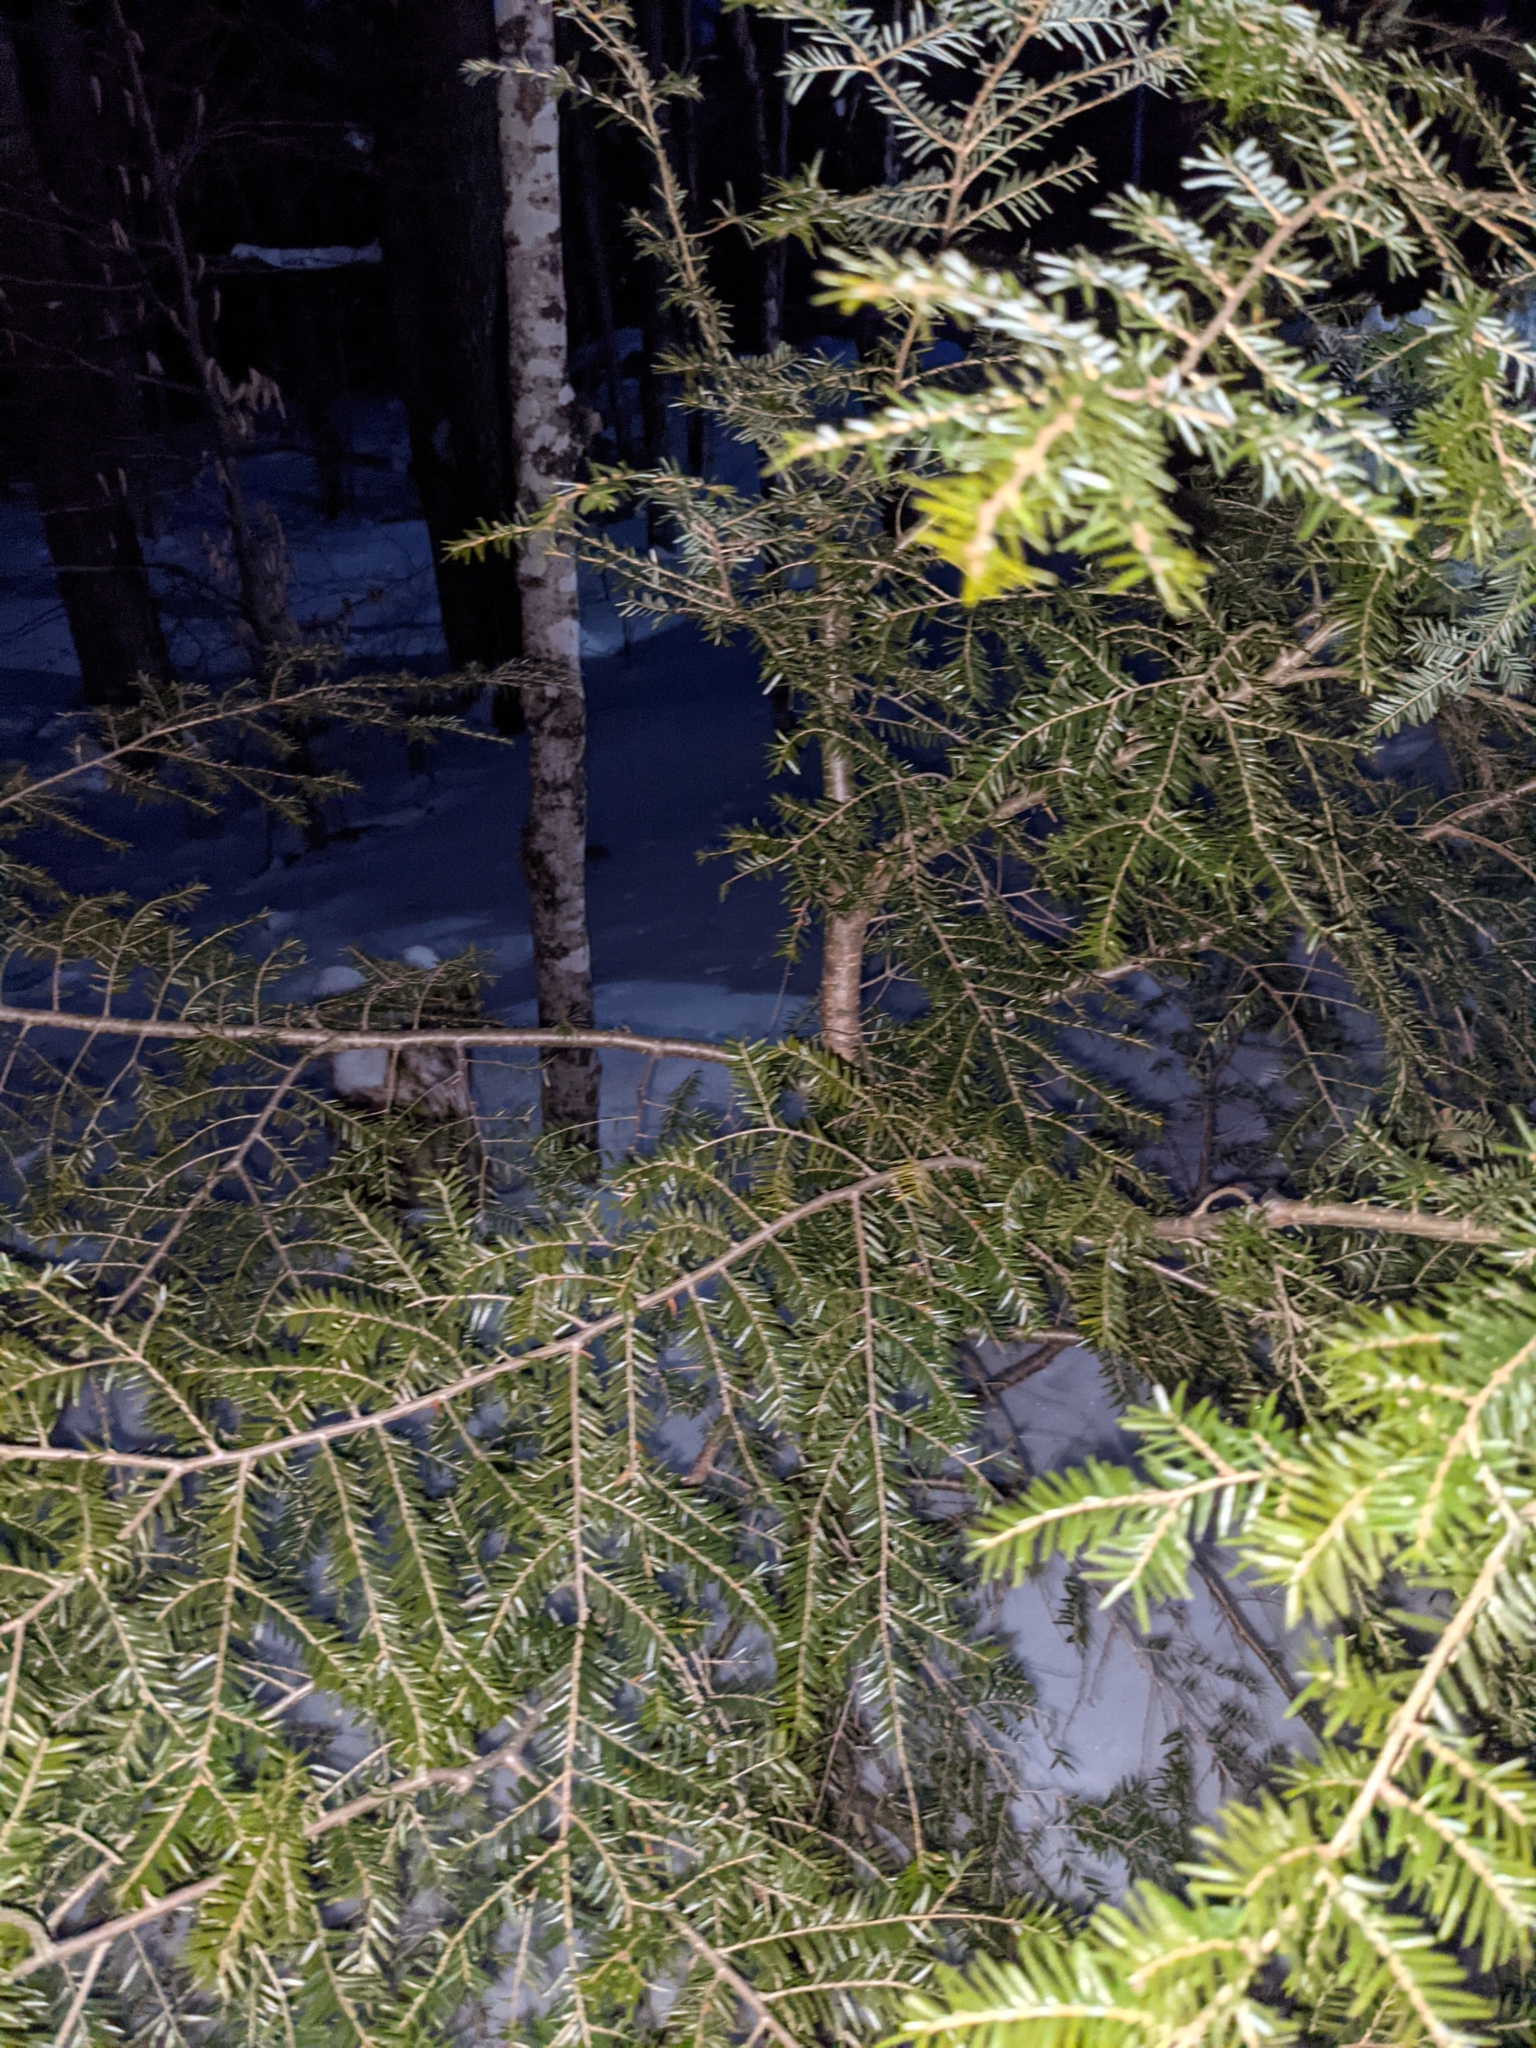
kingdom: Plantae
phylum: Tracheophyta
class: Pinopsida
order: Pinales
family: Pinaceae
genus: Tsuga
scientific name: Tsuga canadensis
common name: Eastern hemlock
